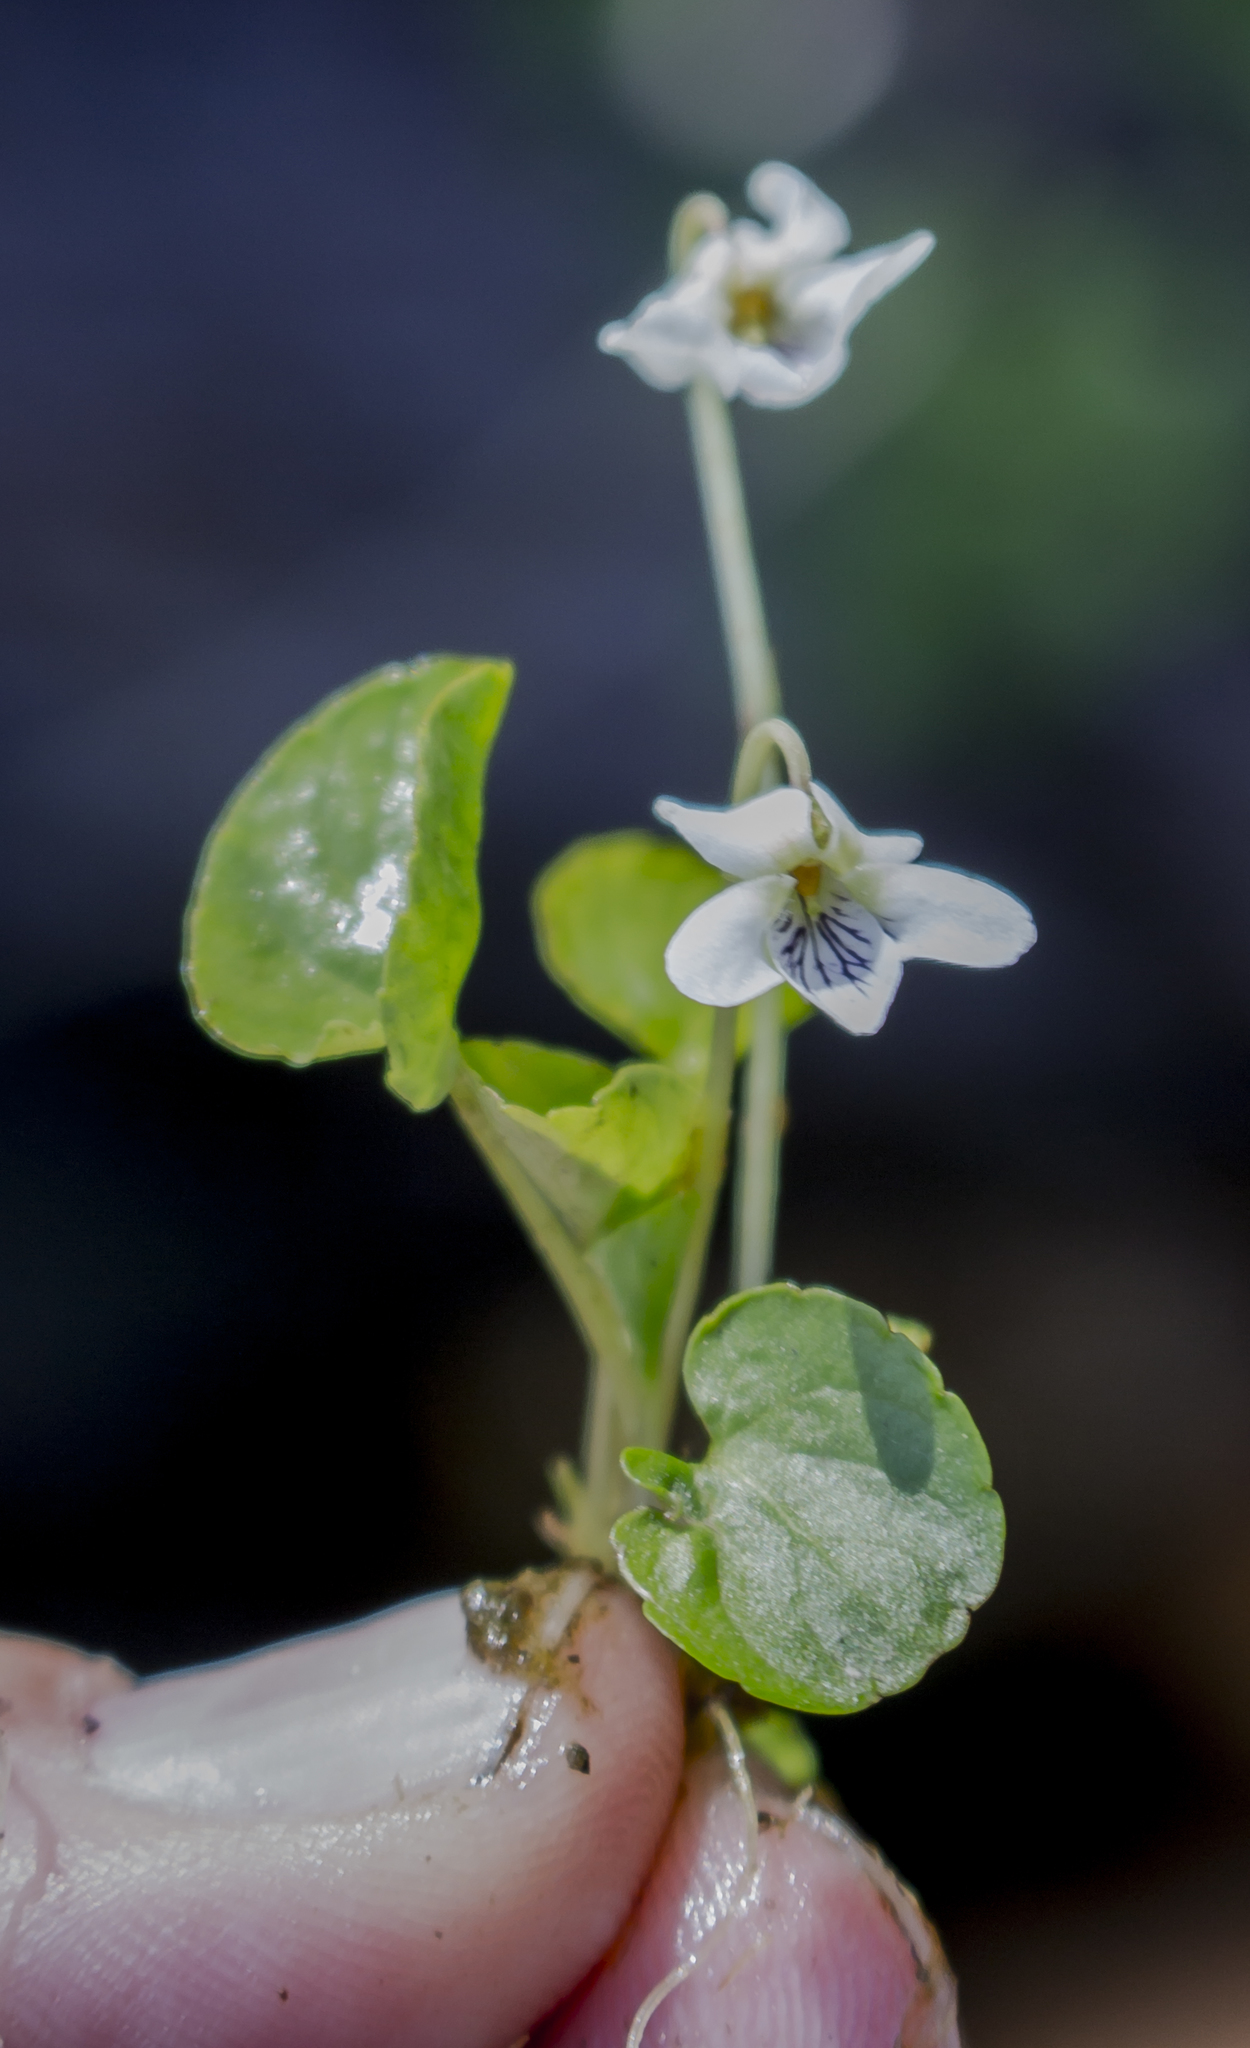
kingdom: Plantae
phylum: Tracheophyta
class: Magnoliopsida
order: Malpighiales
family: Violaceae
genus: Viola
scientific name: Viola minuscula
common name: Northern white violet
